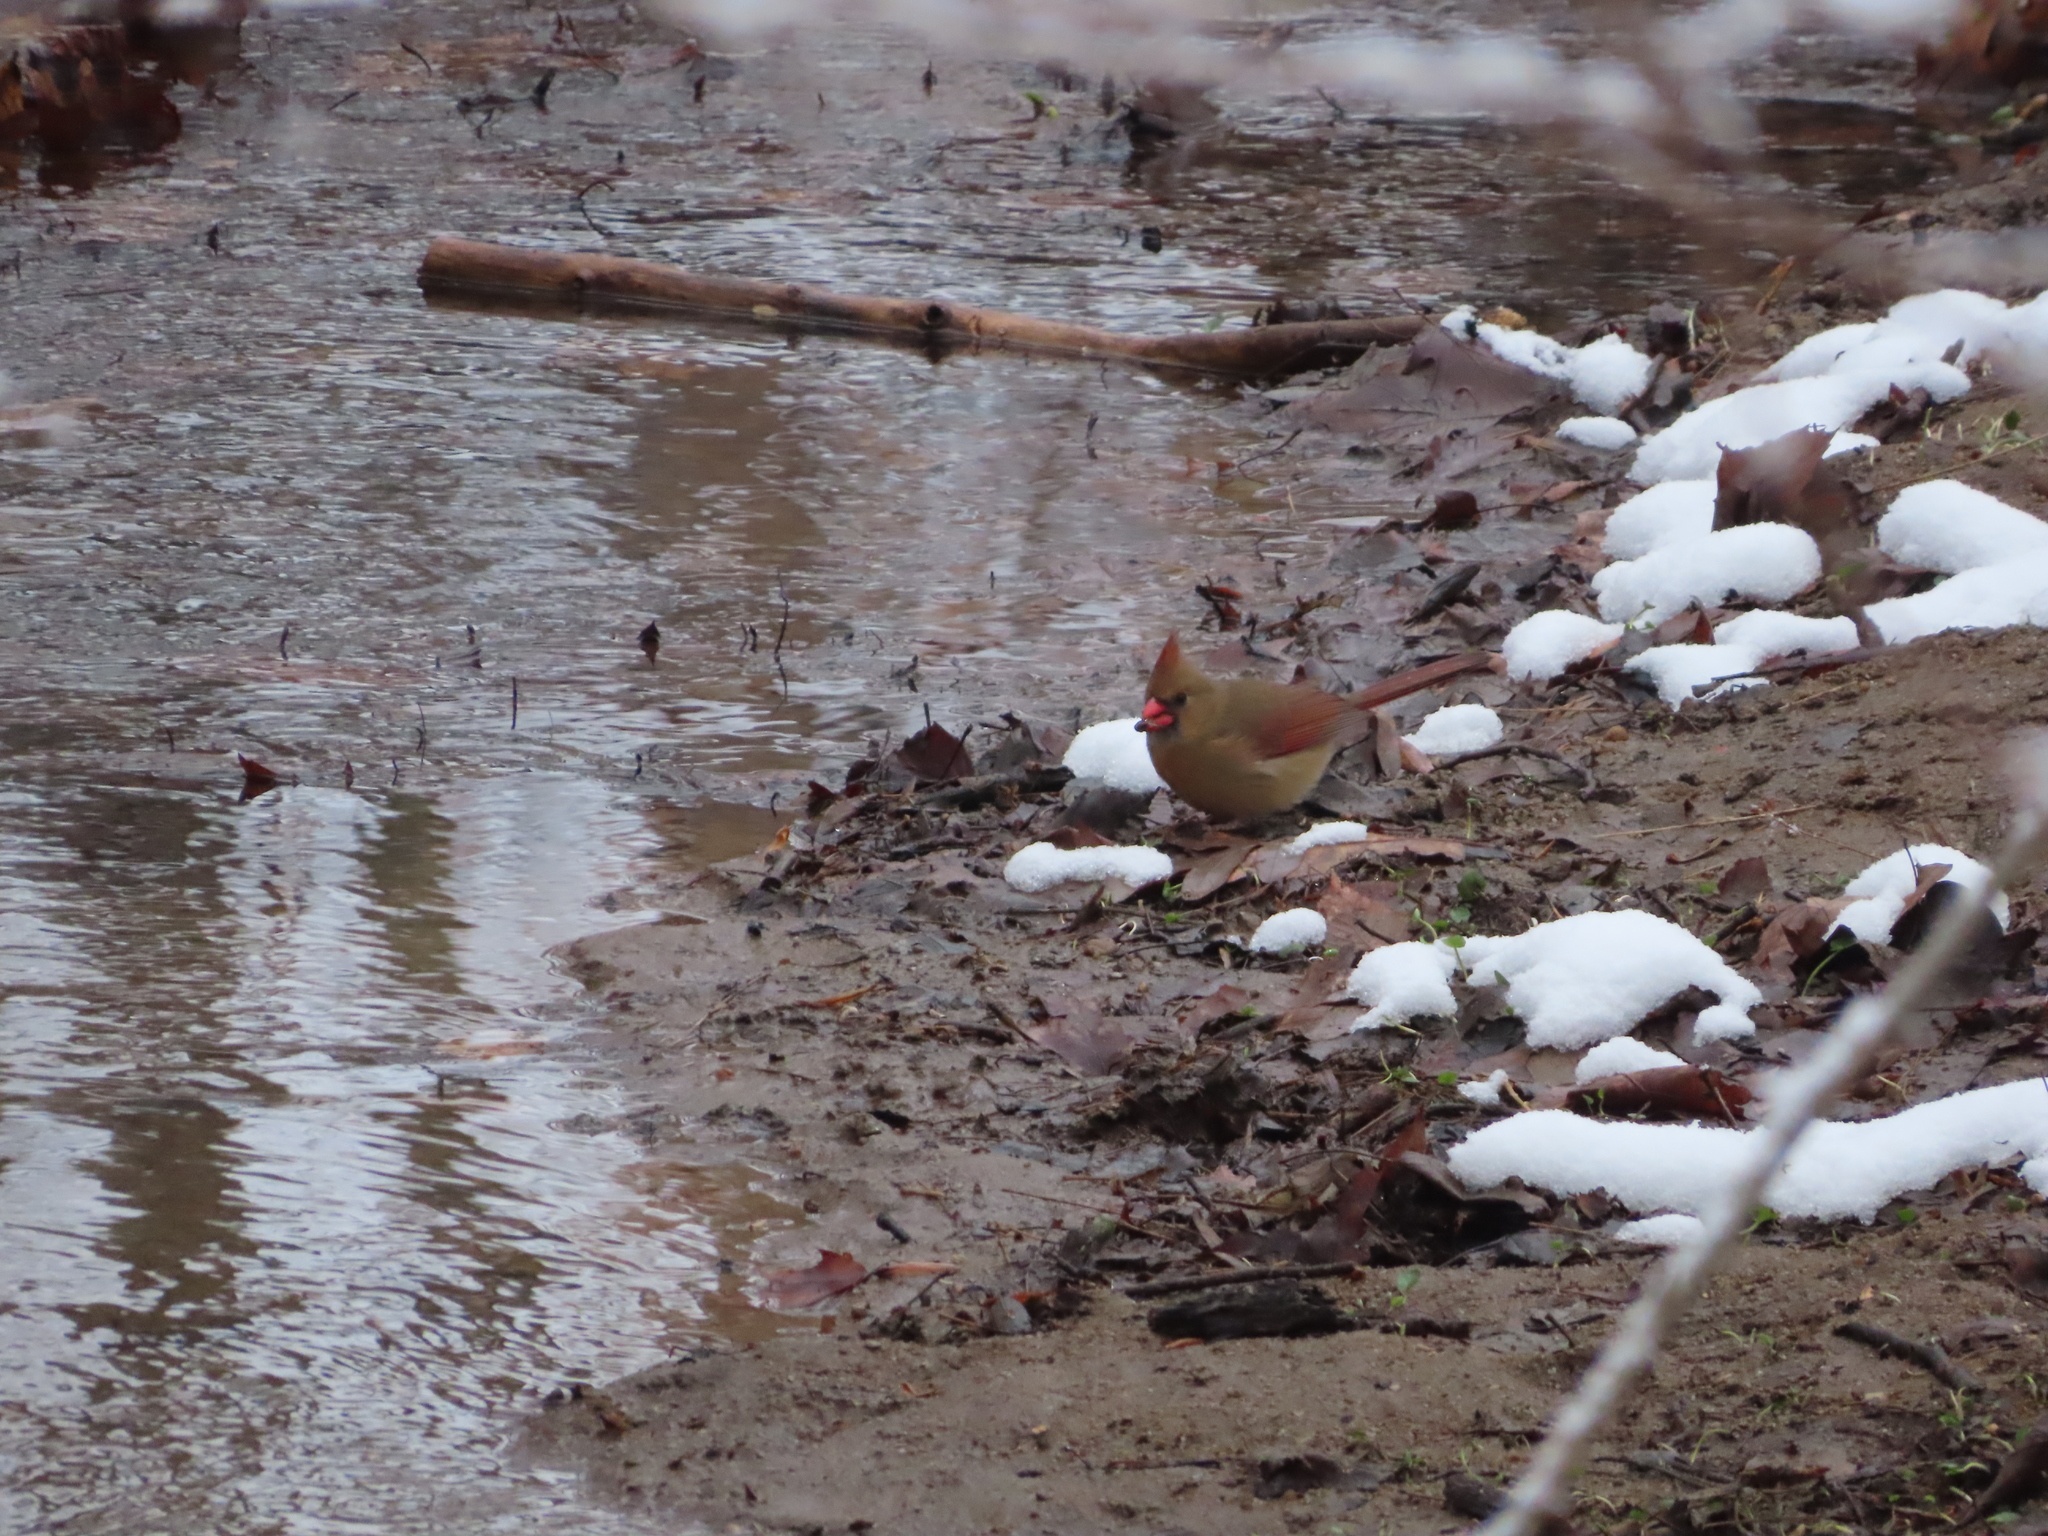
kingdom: Animalia
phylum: Chordata
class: Aves
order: Passeriformes
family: Cardinalidae
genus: Cardinalis
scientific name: Cardinalis cardinalis
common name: Northern cardinal
